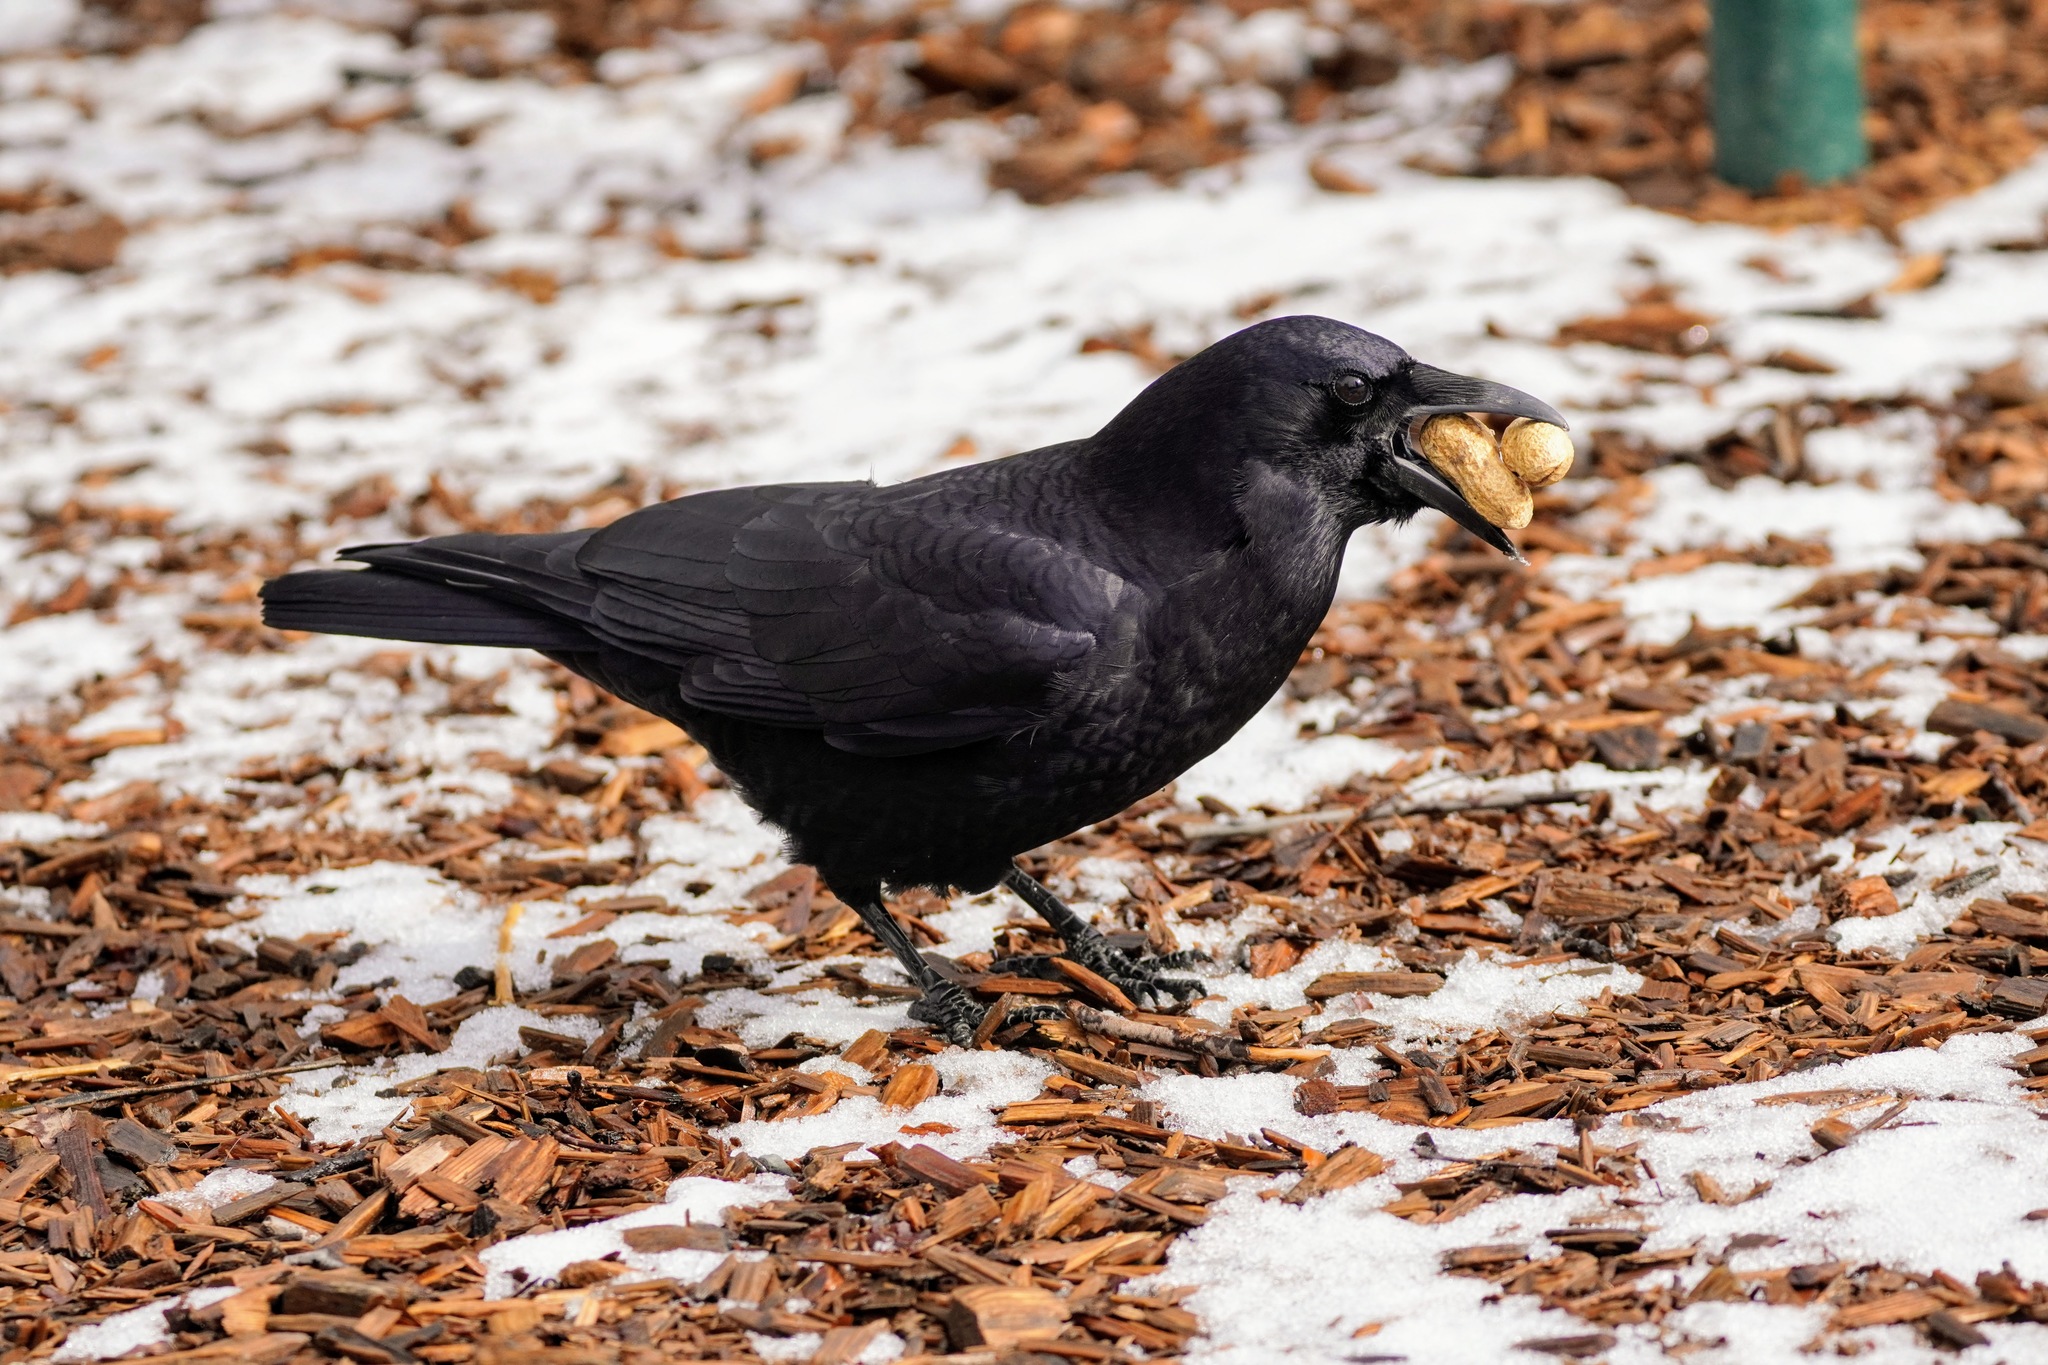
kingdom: Animalia
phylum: Chordata
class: Aves
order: Passeriformes
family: Corvidae
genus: Corvus
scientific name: Corvus brachyrhynchos
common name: American crow
